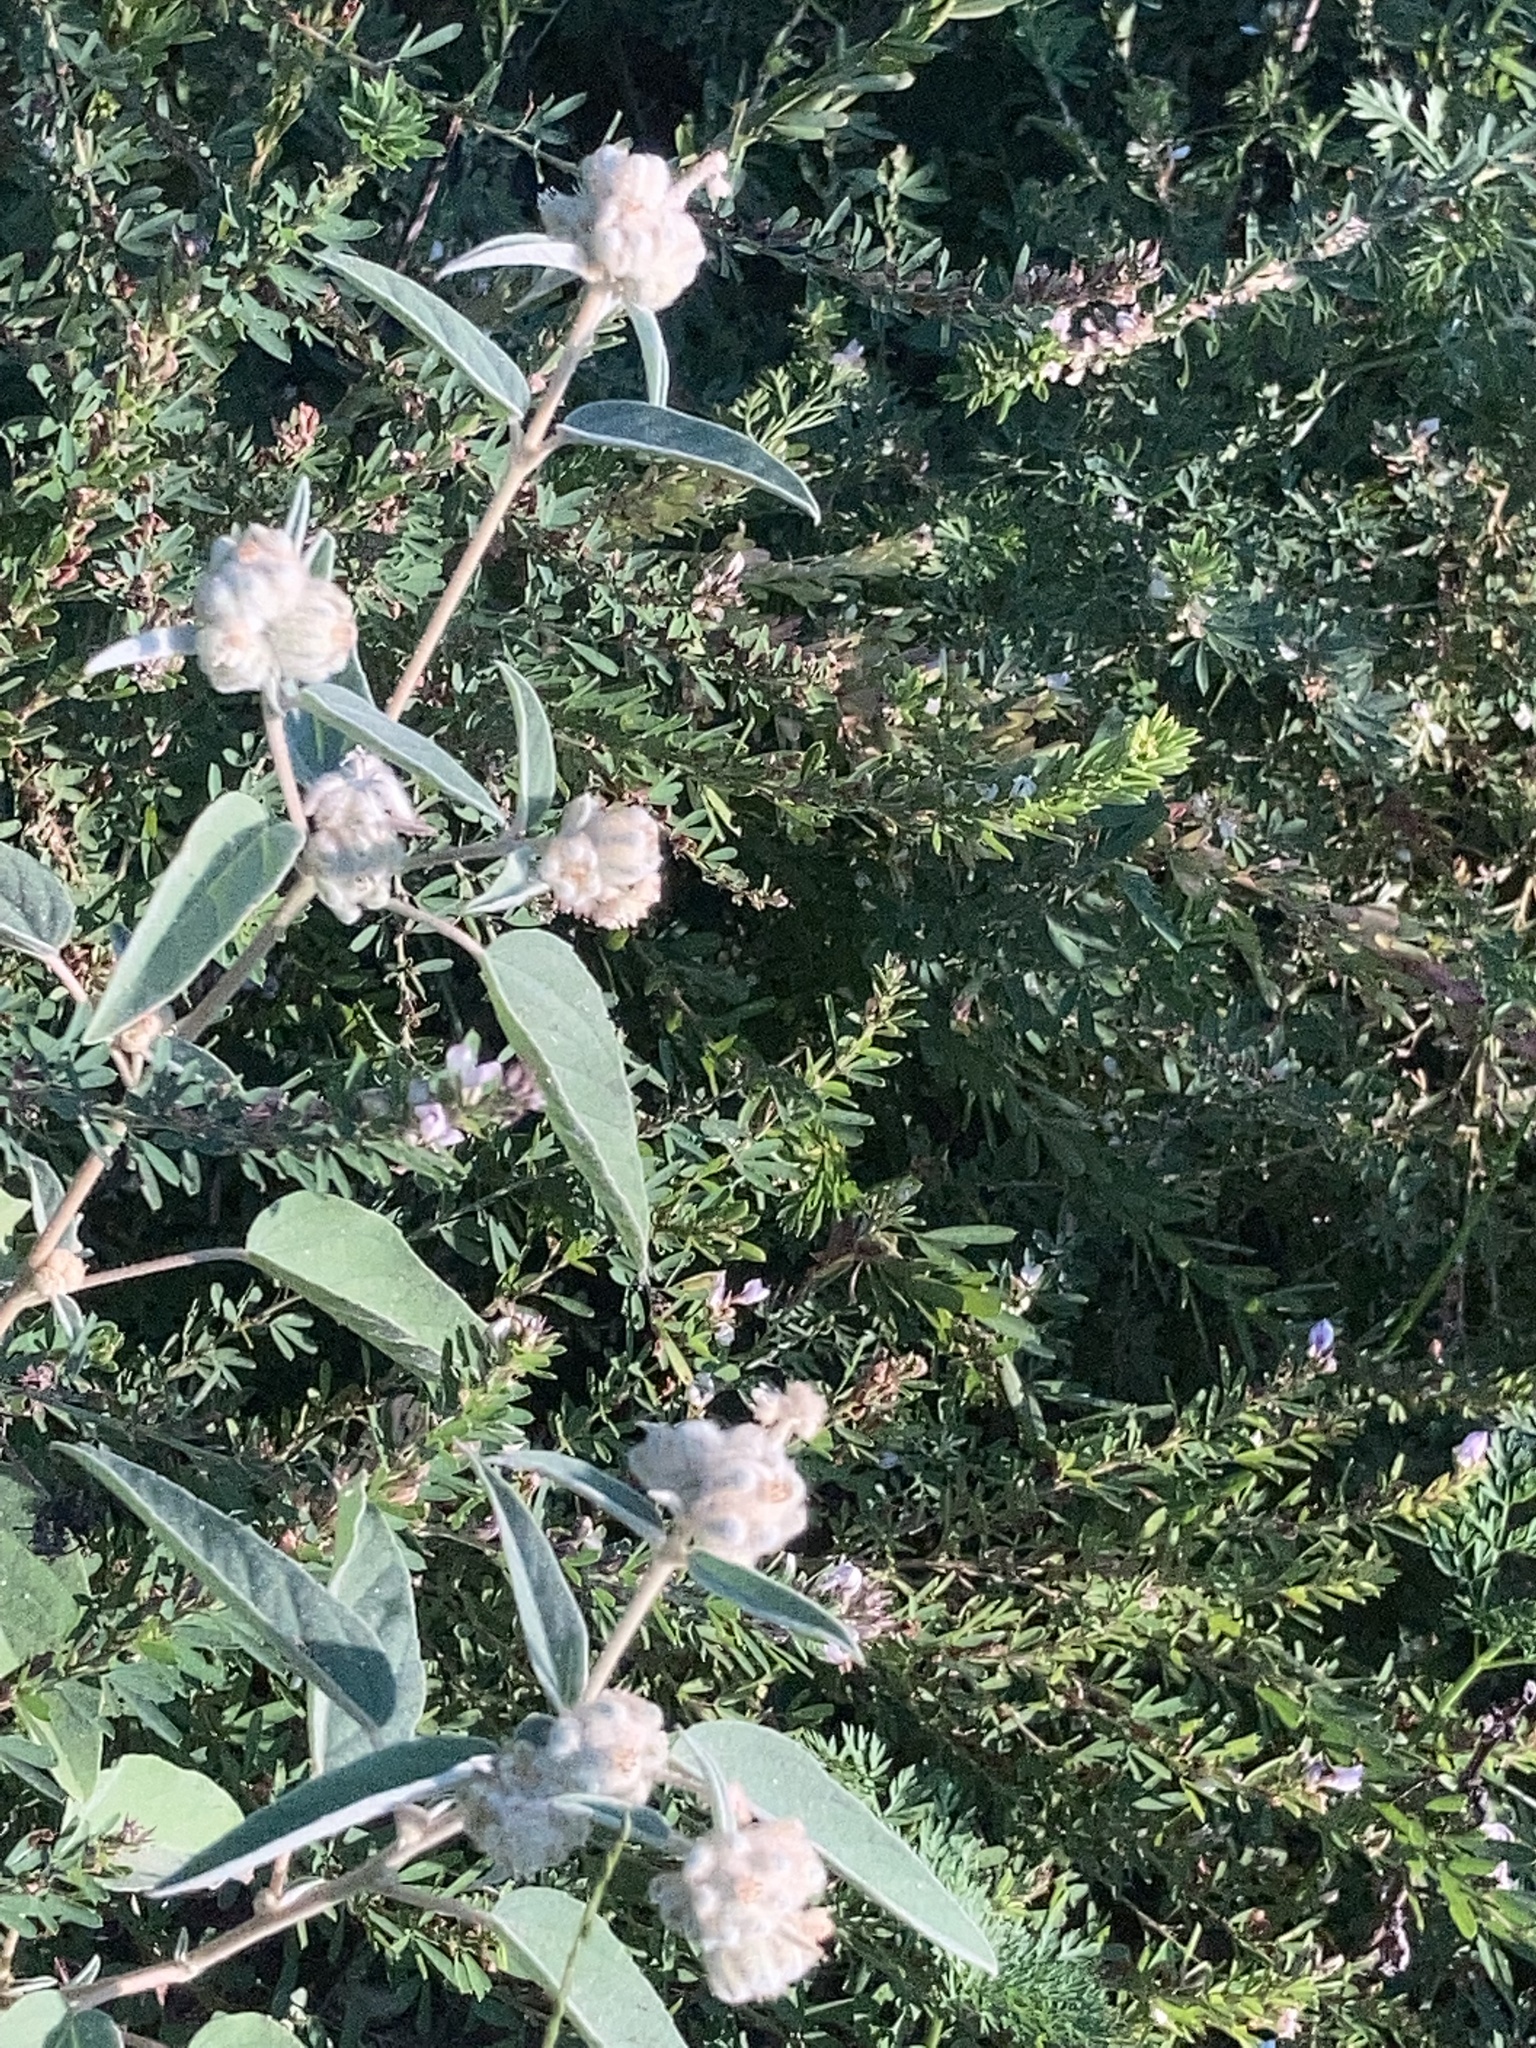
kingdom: Plantae
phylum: Tracheophyta
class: Magnoliopsida
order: Malpighiales
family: Euphorbiaceae
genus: Croton
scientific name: Croton lindheimeri
